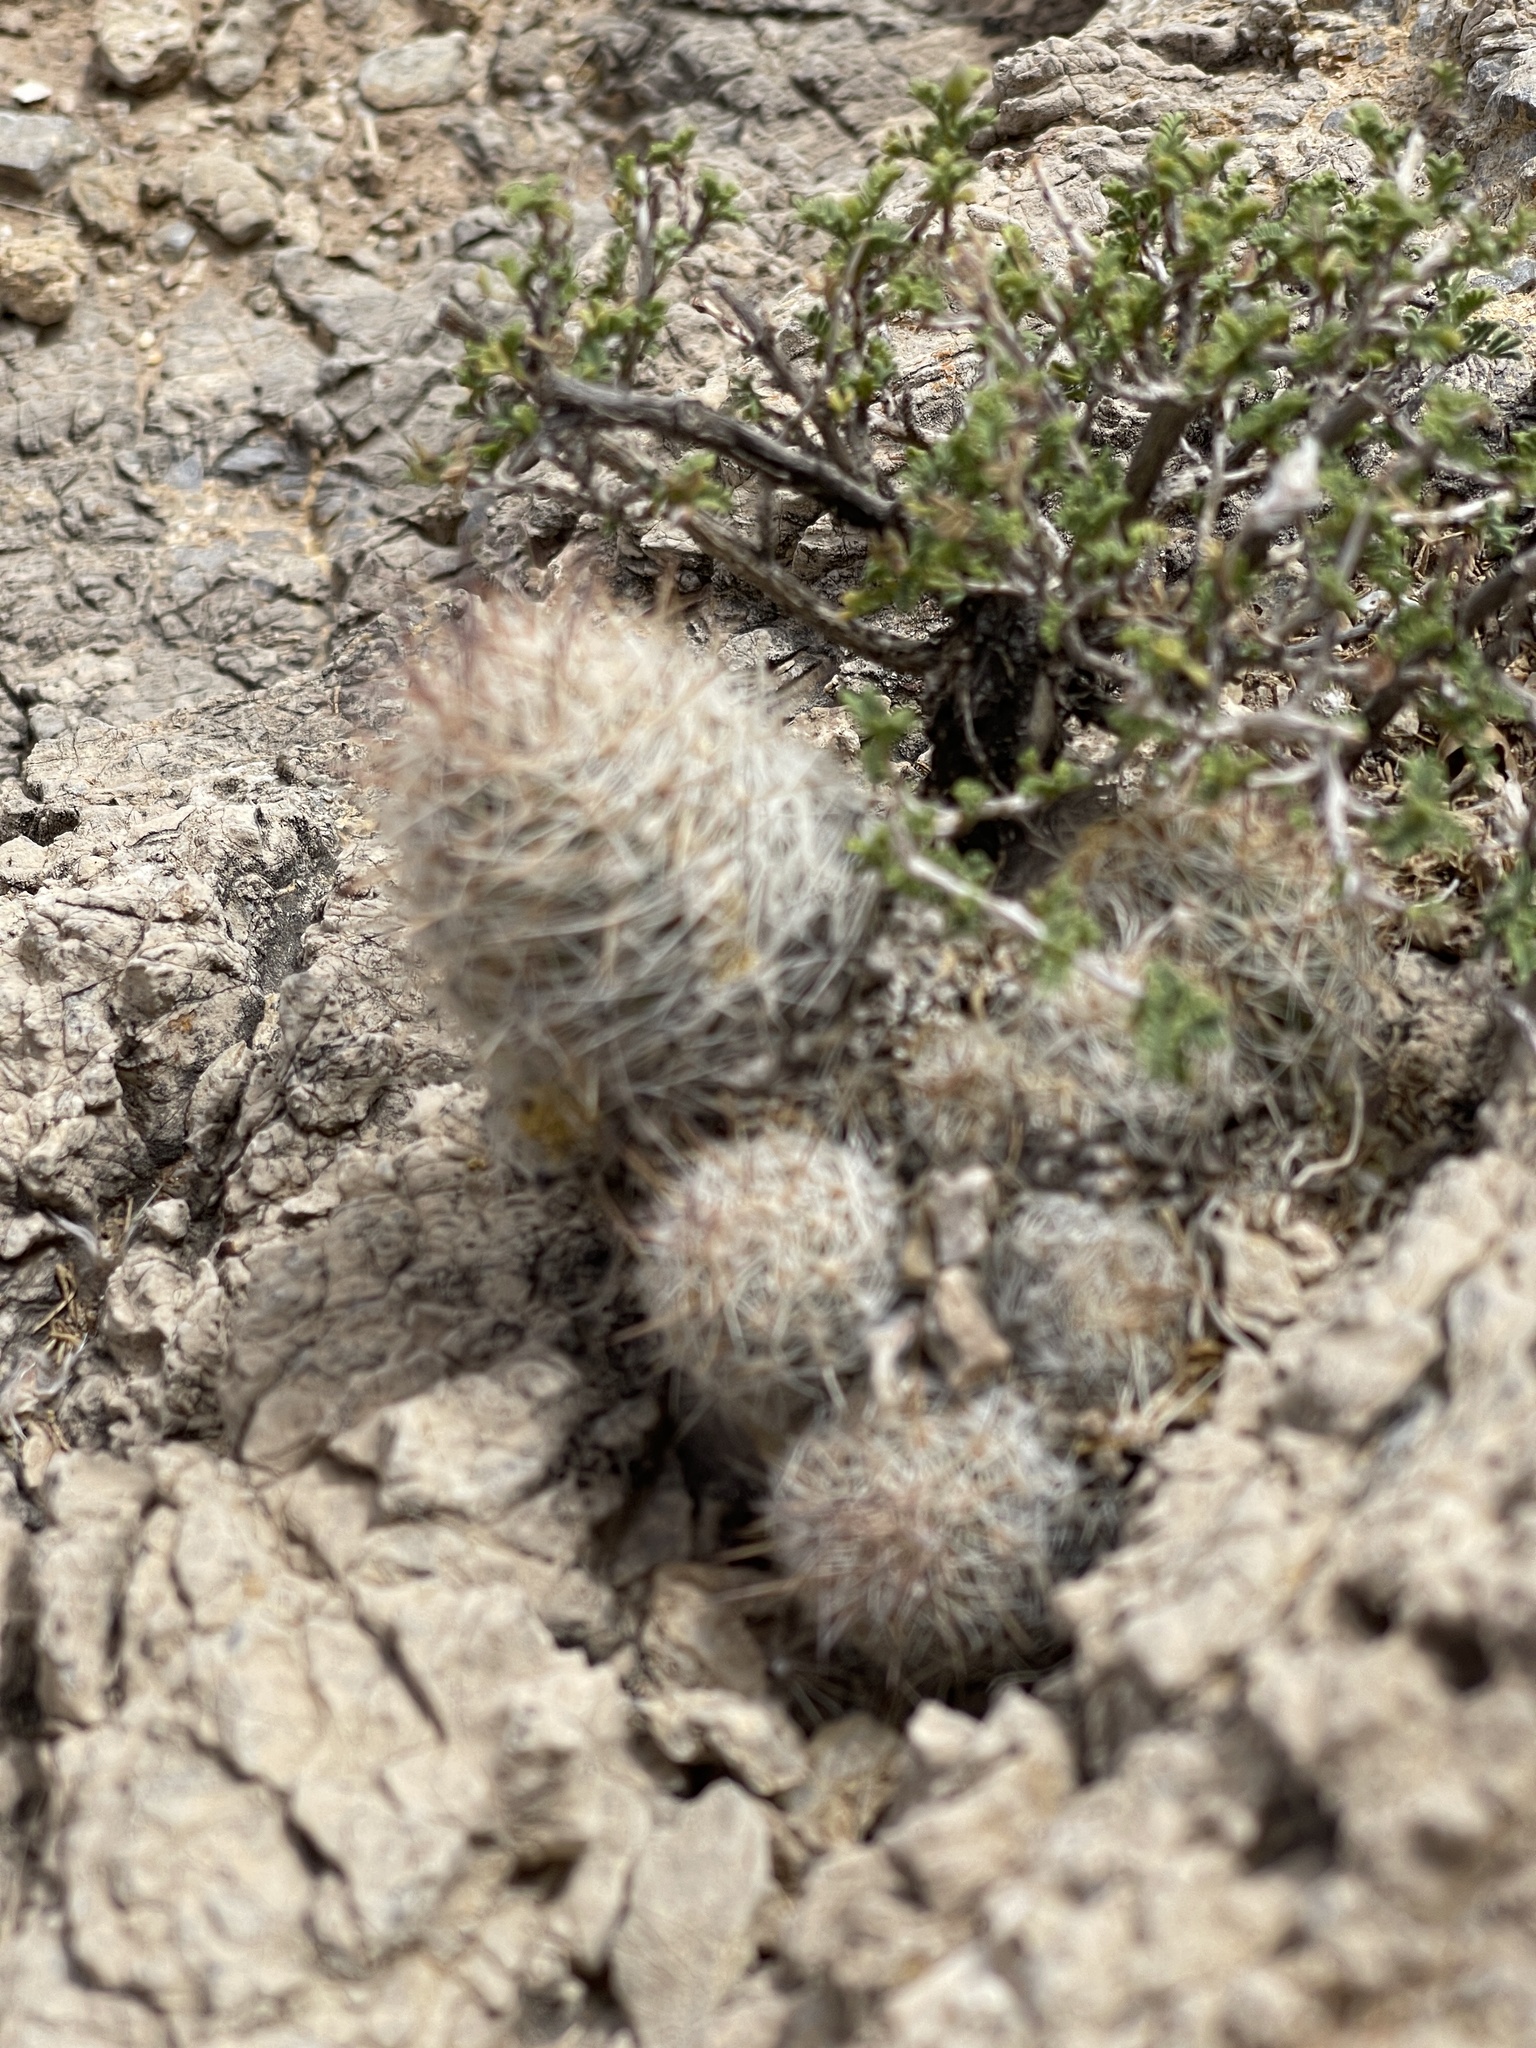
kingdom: Plantae
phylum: Tracheophyta
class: Magnoliopsida
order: Caryophyllales
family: Cactaceae
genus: Pelecyphora
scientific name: Pelecyphora tuberculosa
